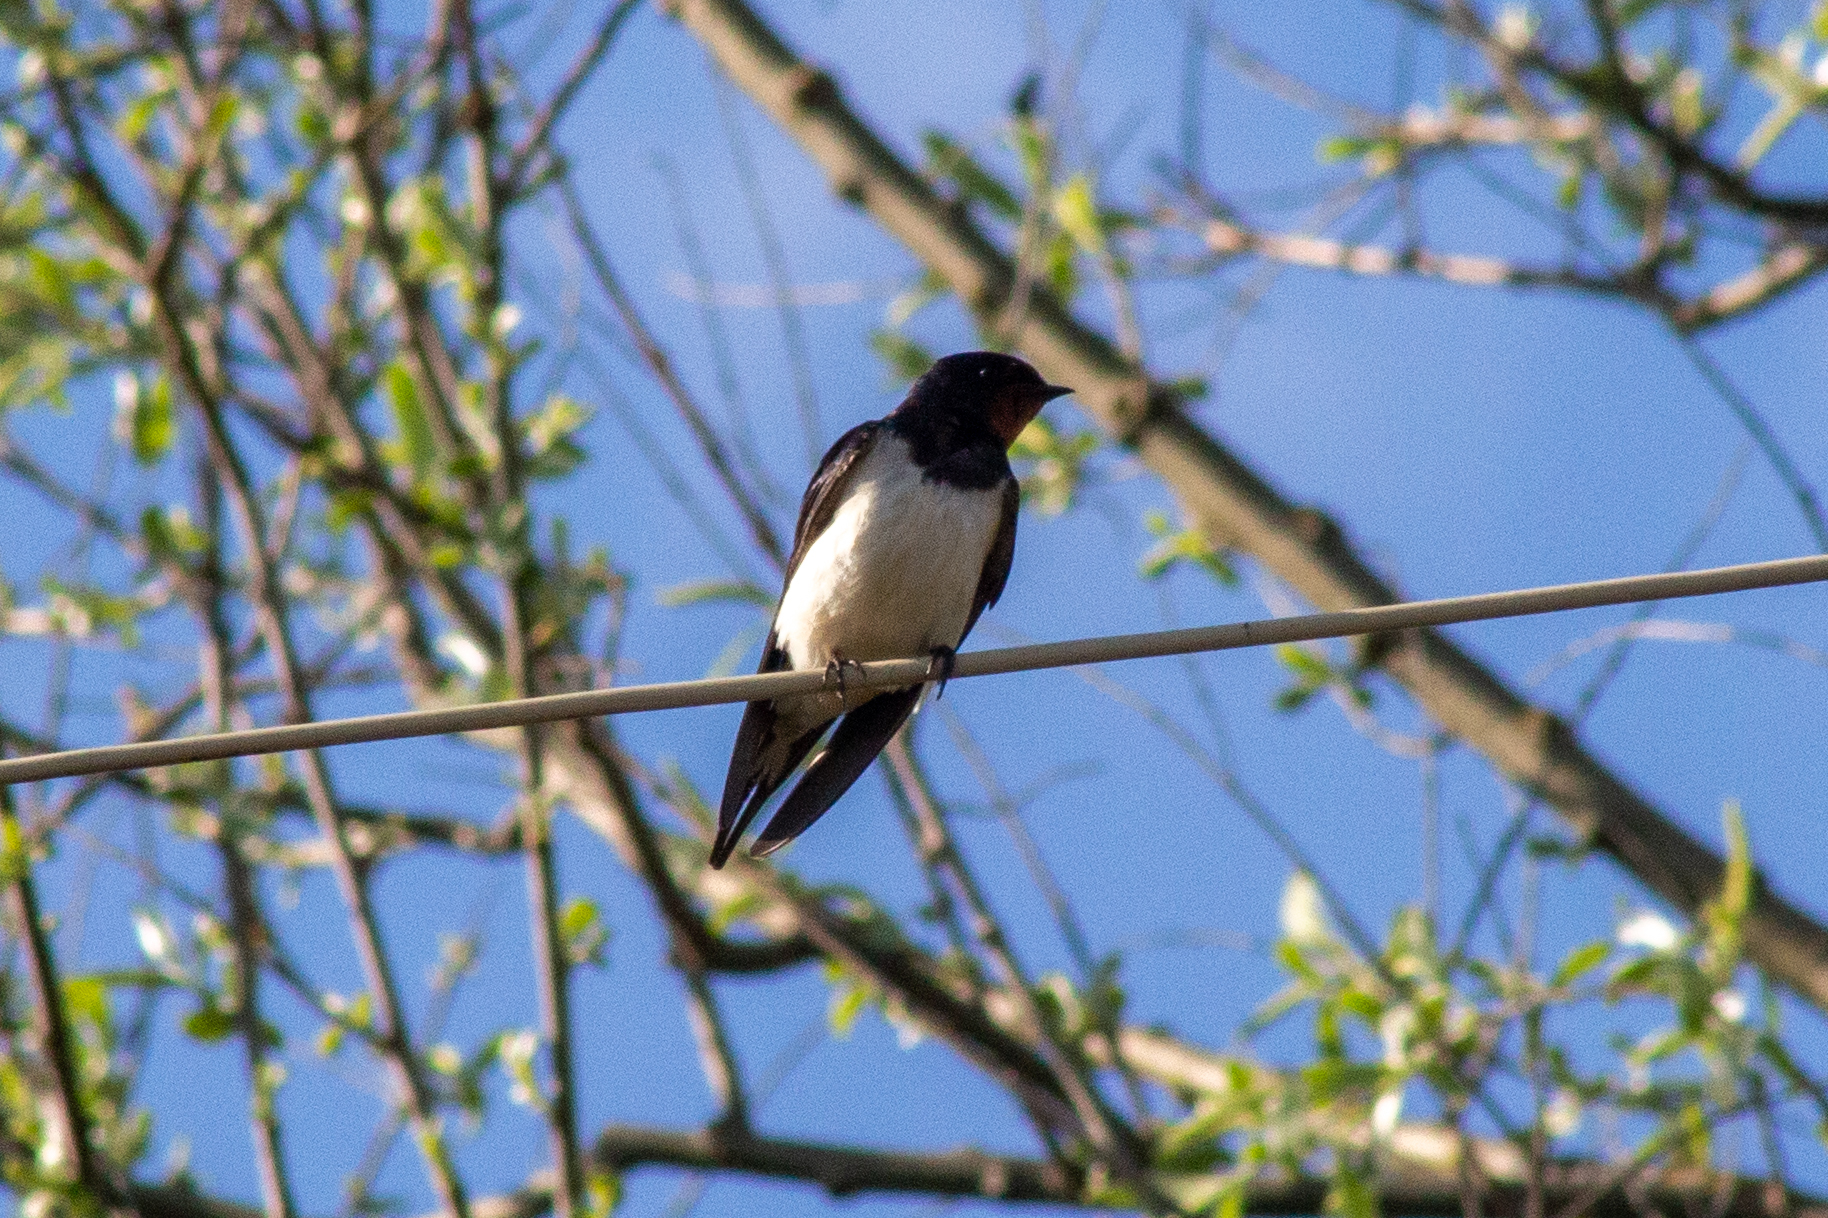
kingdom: Animalia
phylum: Chordata
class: Aves
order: Passeriformes
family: Hirundinidae
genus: Hirundo
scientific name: Hirundo rustica
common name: Barn swallow
